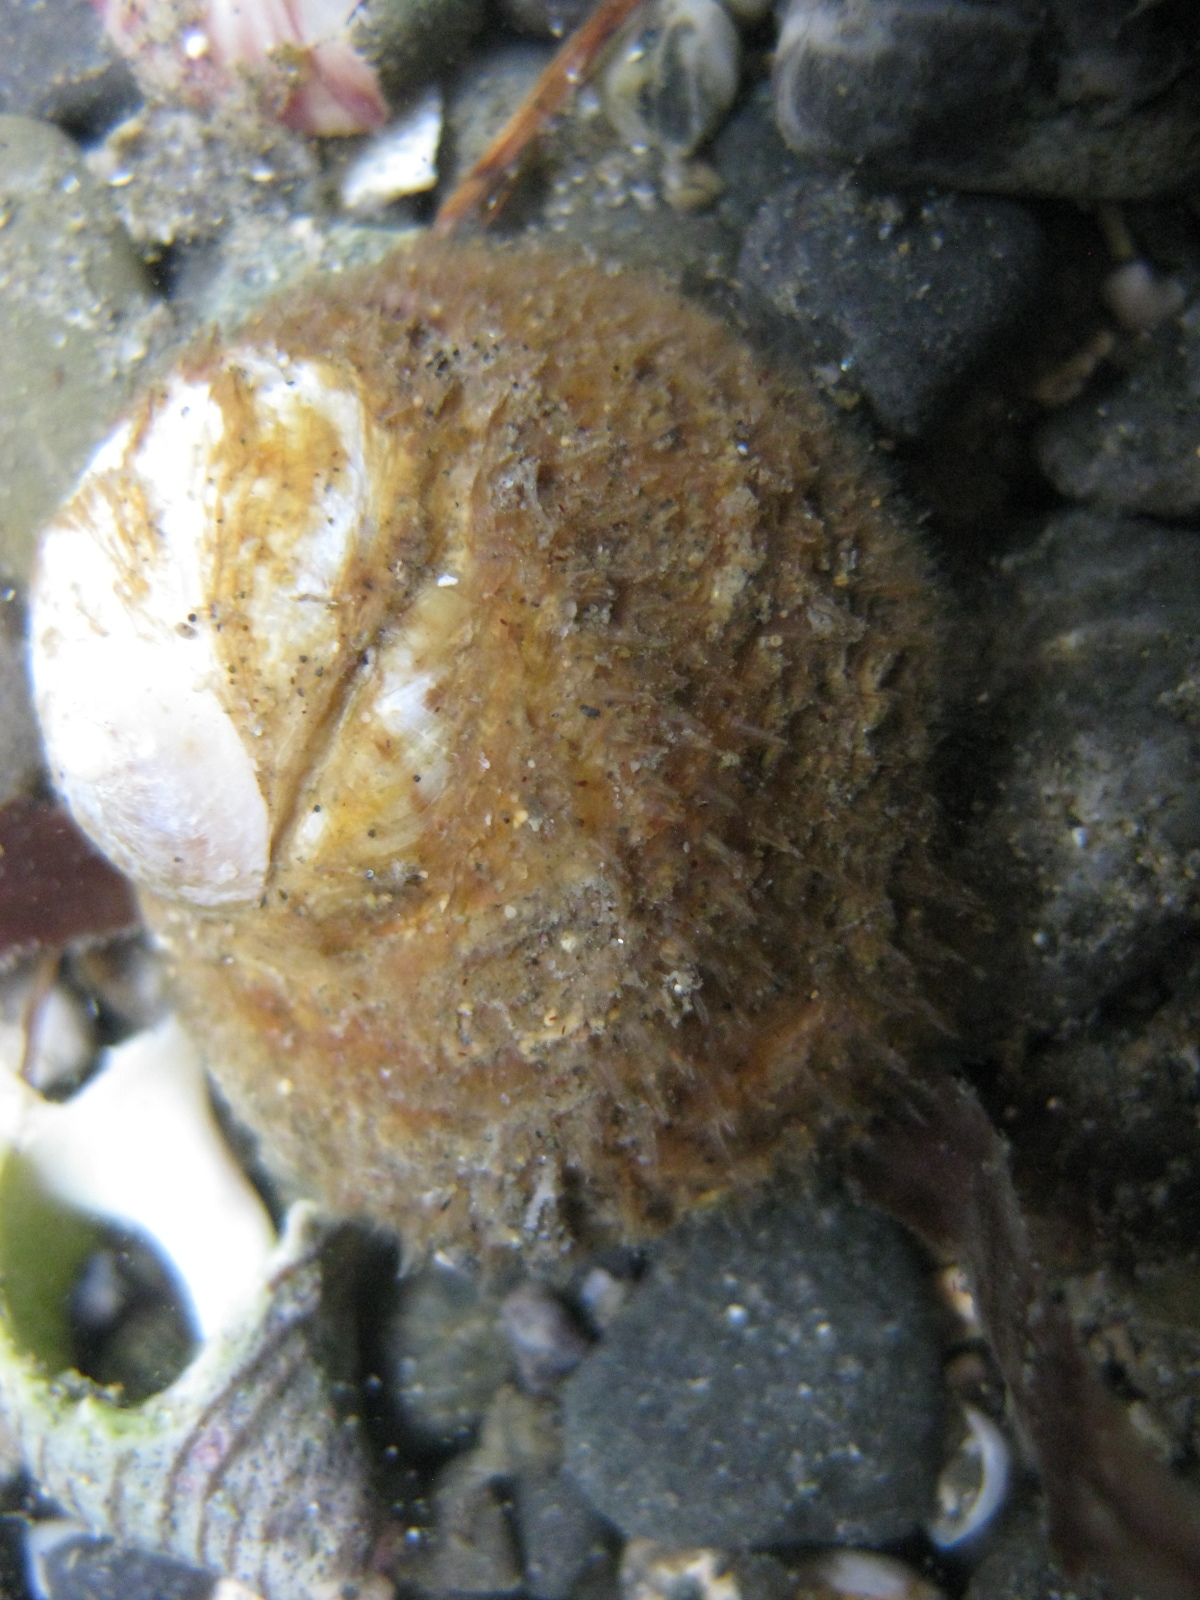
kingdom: Animalia
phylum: Mollusca
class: Gastropoda
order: Littorinimorpha
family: Calyptraeidae
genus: Sigapatella
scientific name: Sigapatella novaezelandiae
